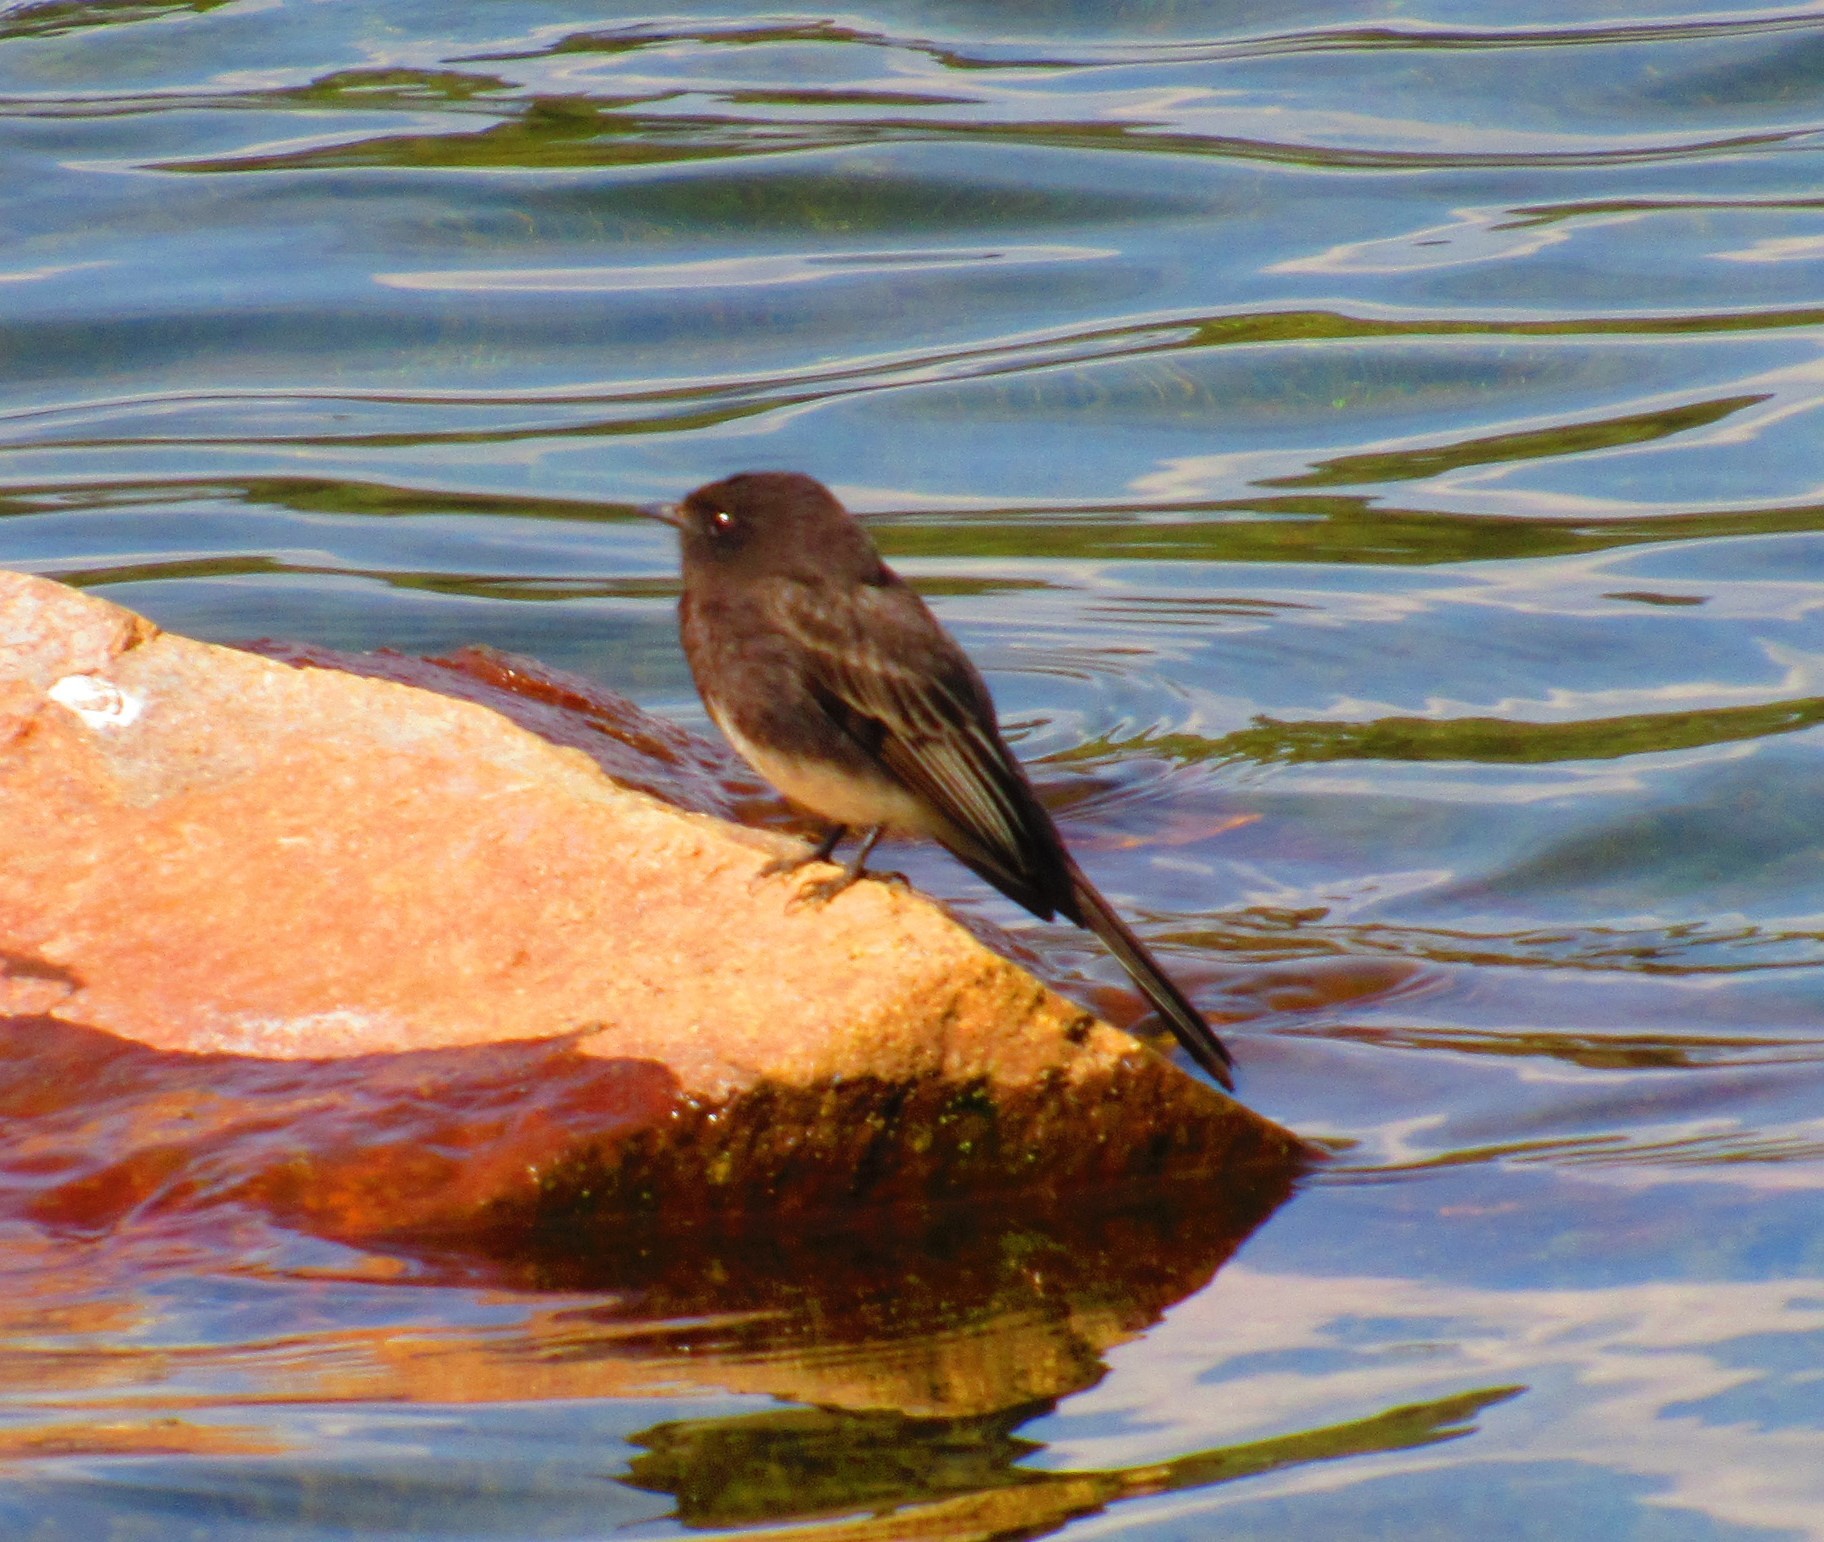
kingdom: Animalia
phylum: Chordata
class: Aves
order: Passeriformes
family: Tyrannidae
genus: Sayornis
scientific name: Sayornis nigricans
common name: Black phoebe
